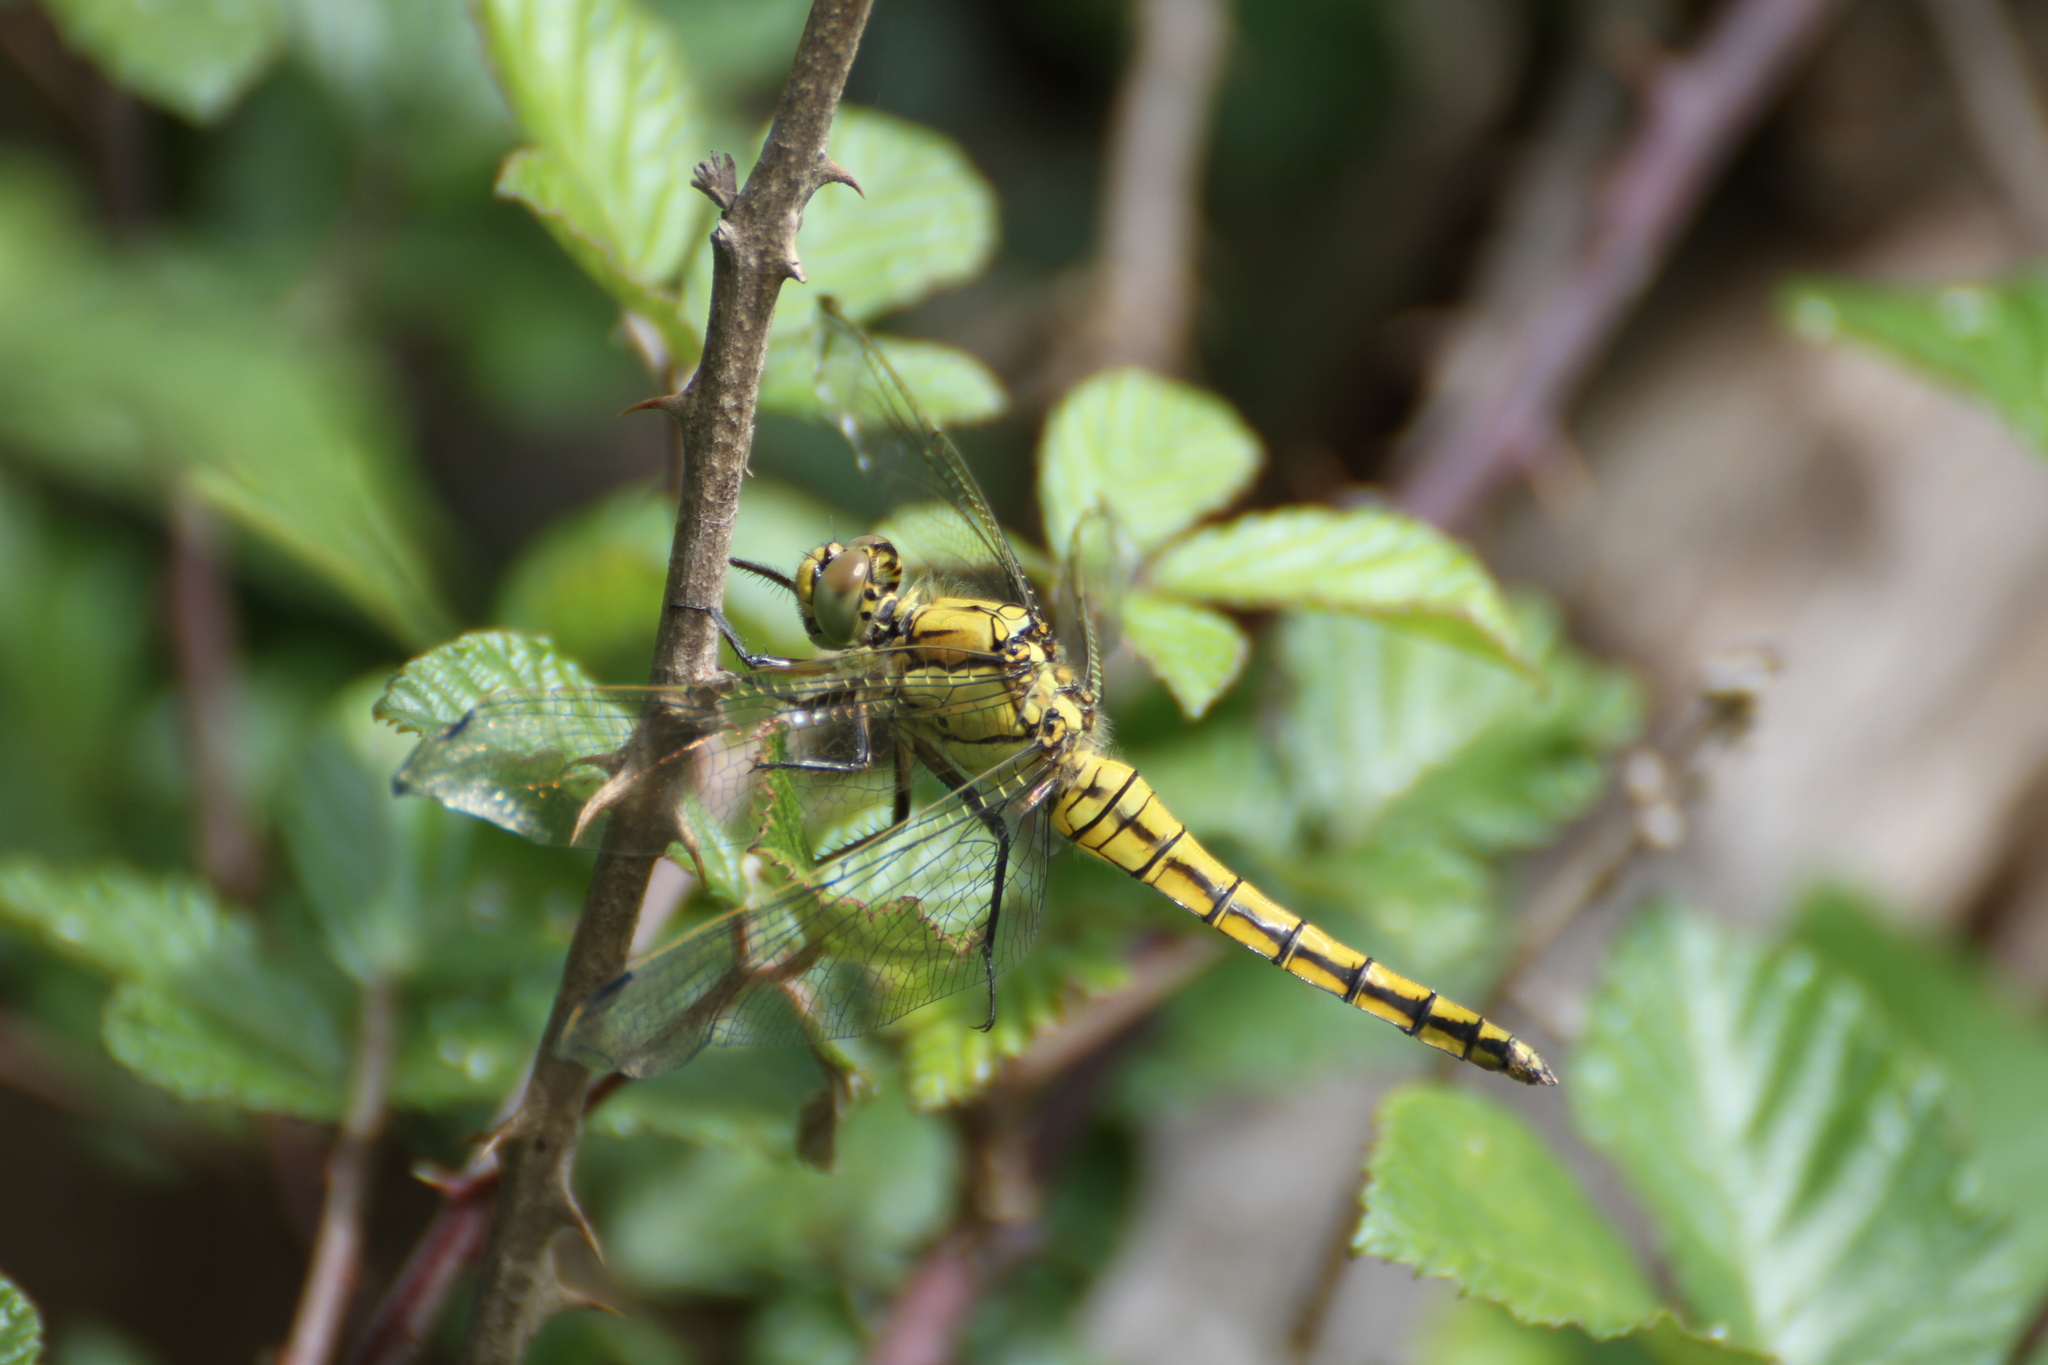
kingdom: Animalia
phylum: Arthropoda
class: Insecta
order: Odonata
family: Libellulidae
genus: Orthetrum
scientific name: Orthetrum cancellatum
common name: Black-tailed skimmer
